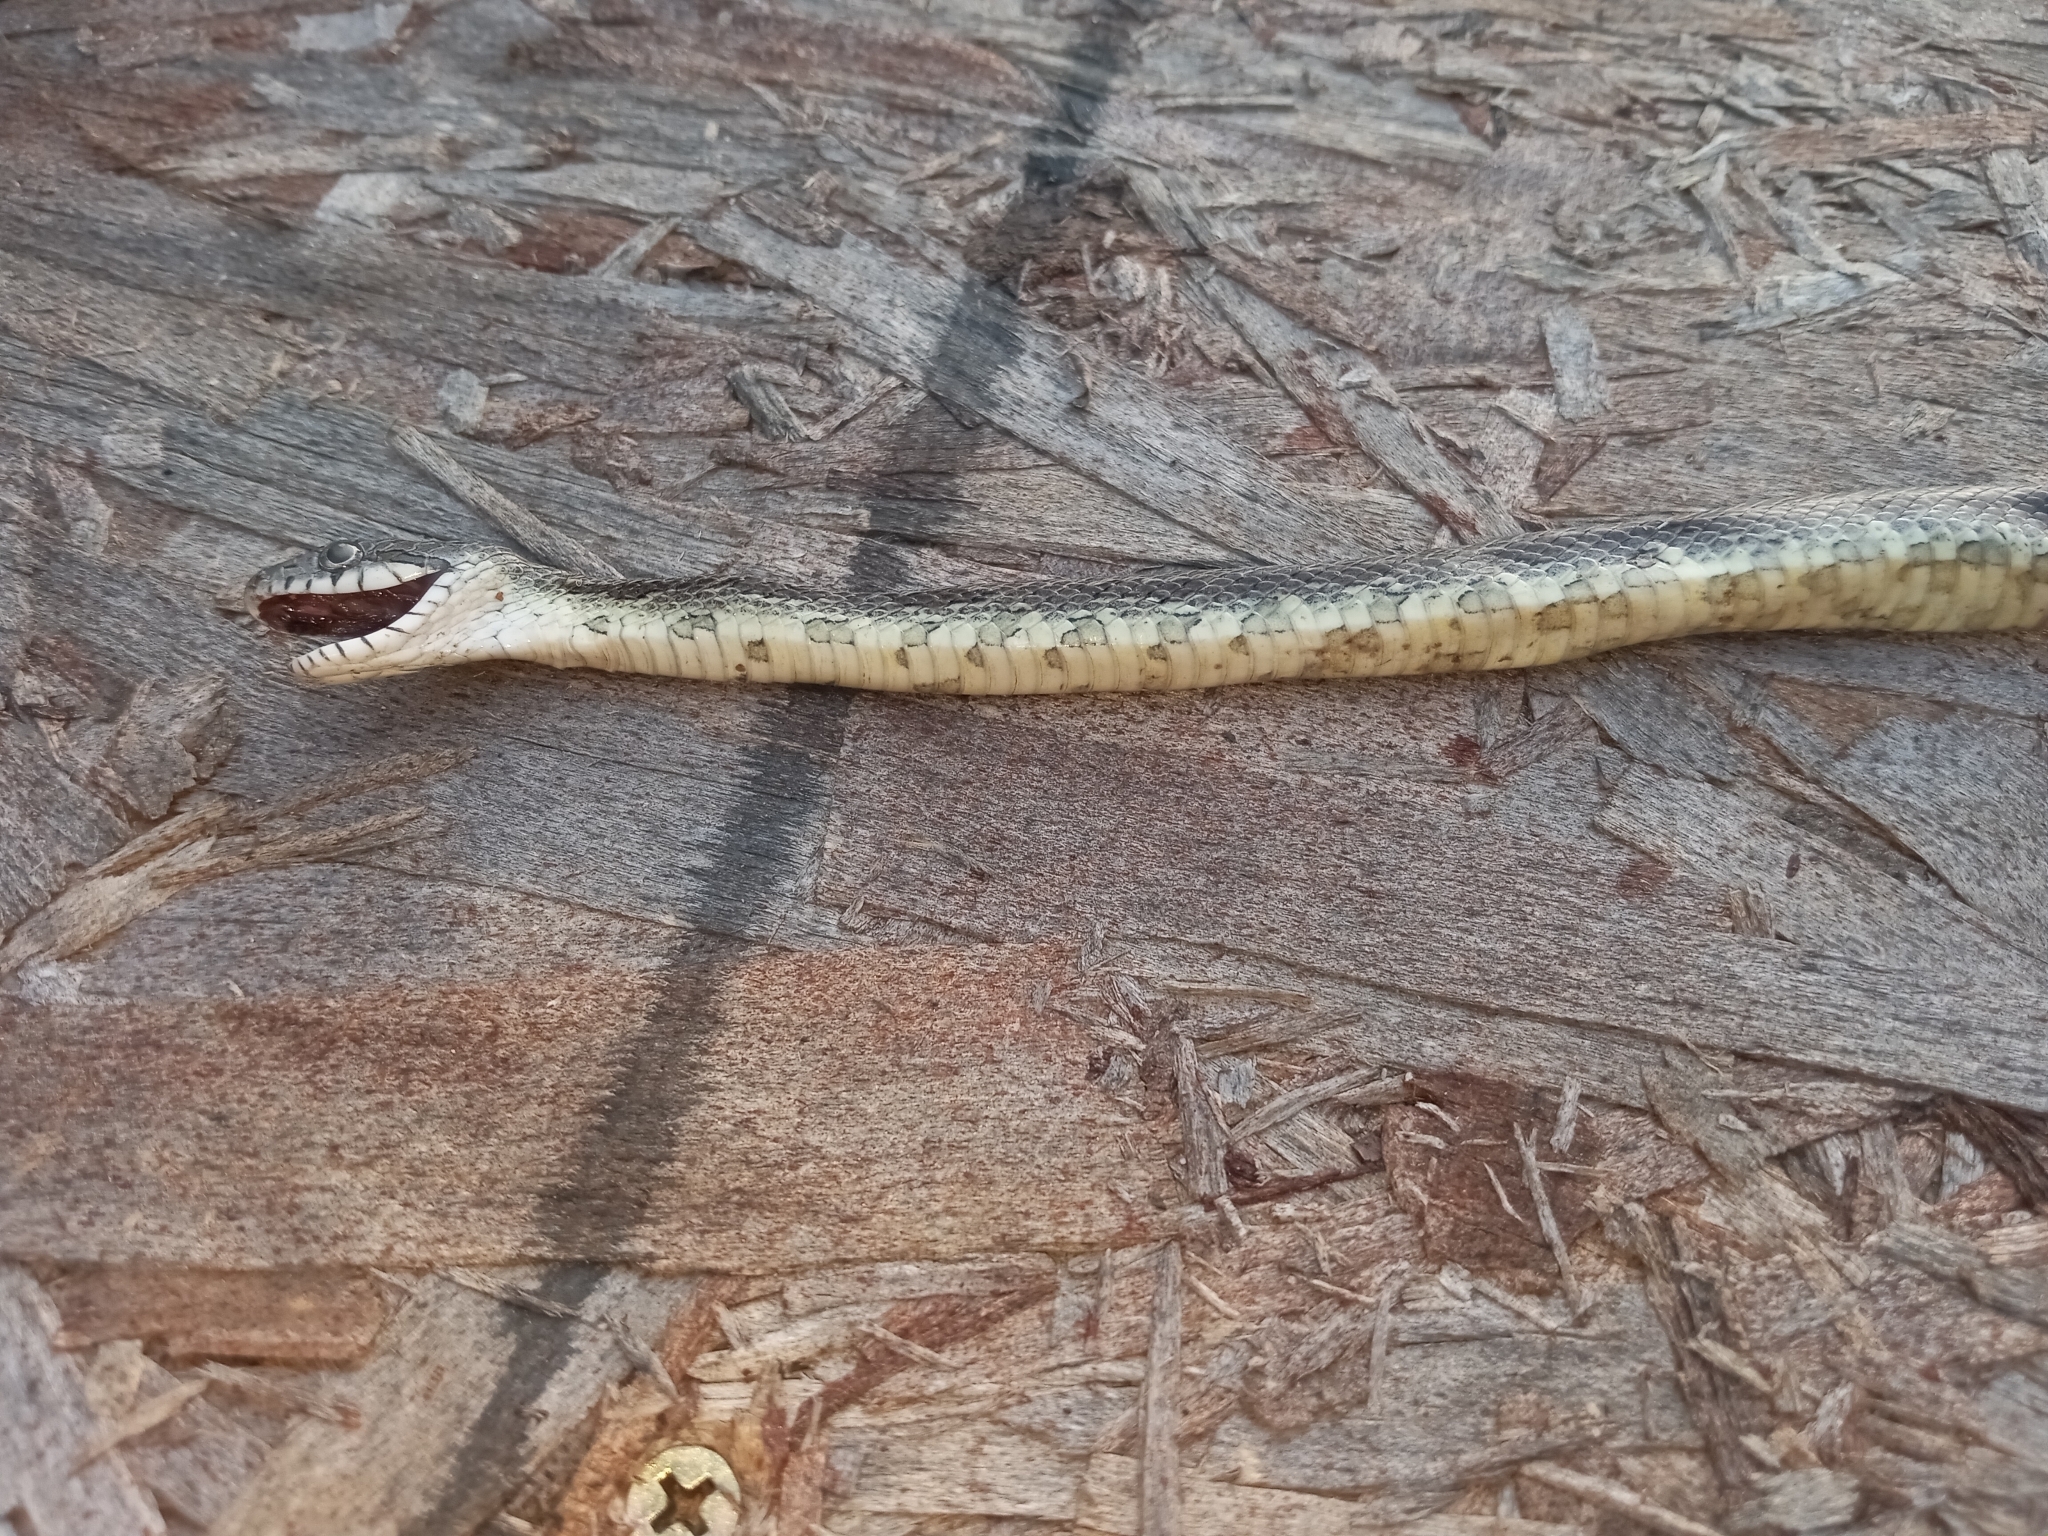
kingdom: Animalia
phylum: Chordata
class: Squamata
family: Colubridae
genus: Pantherophis
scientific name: Pantherophis
